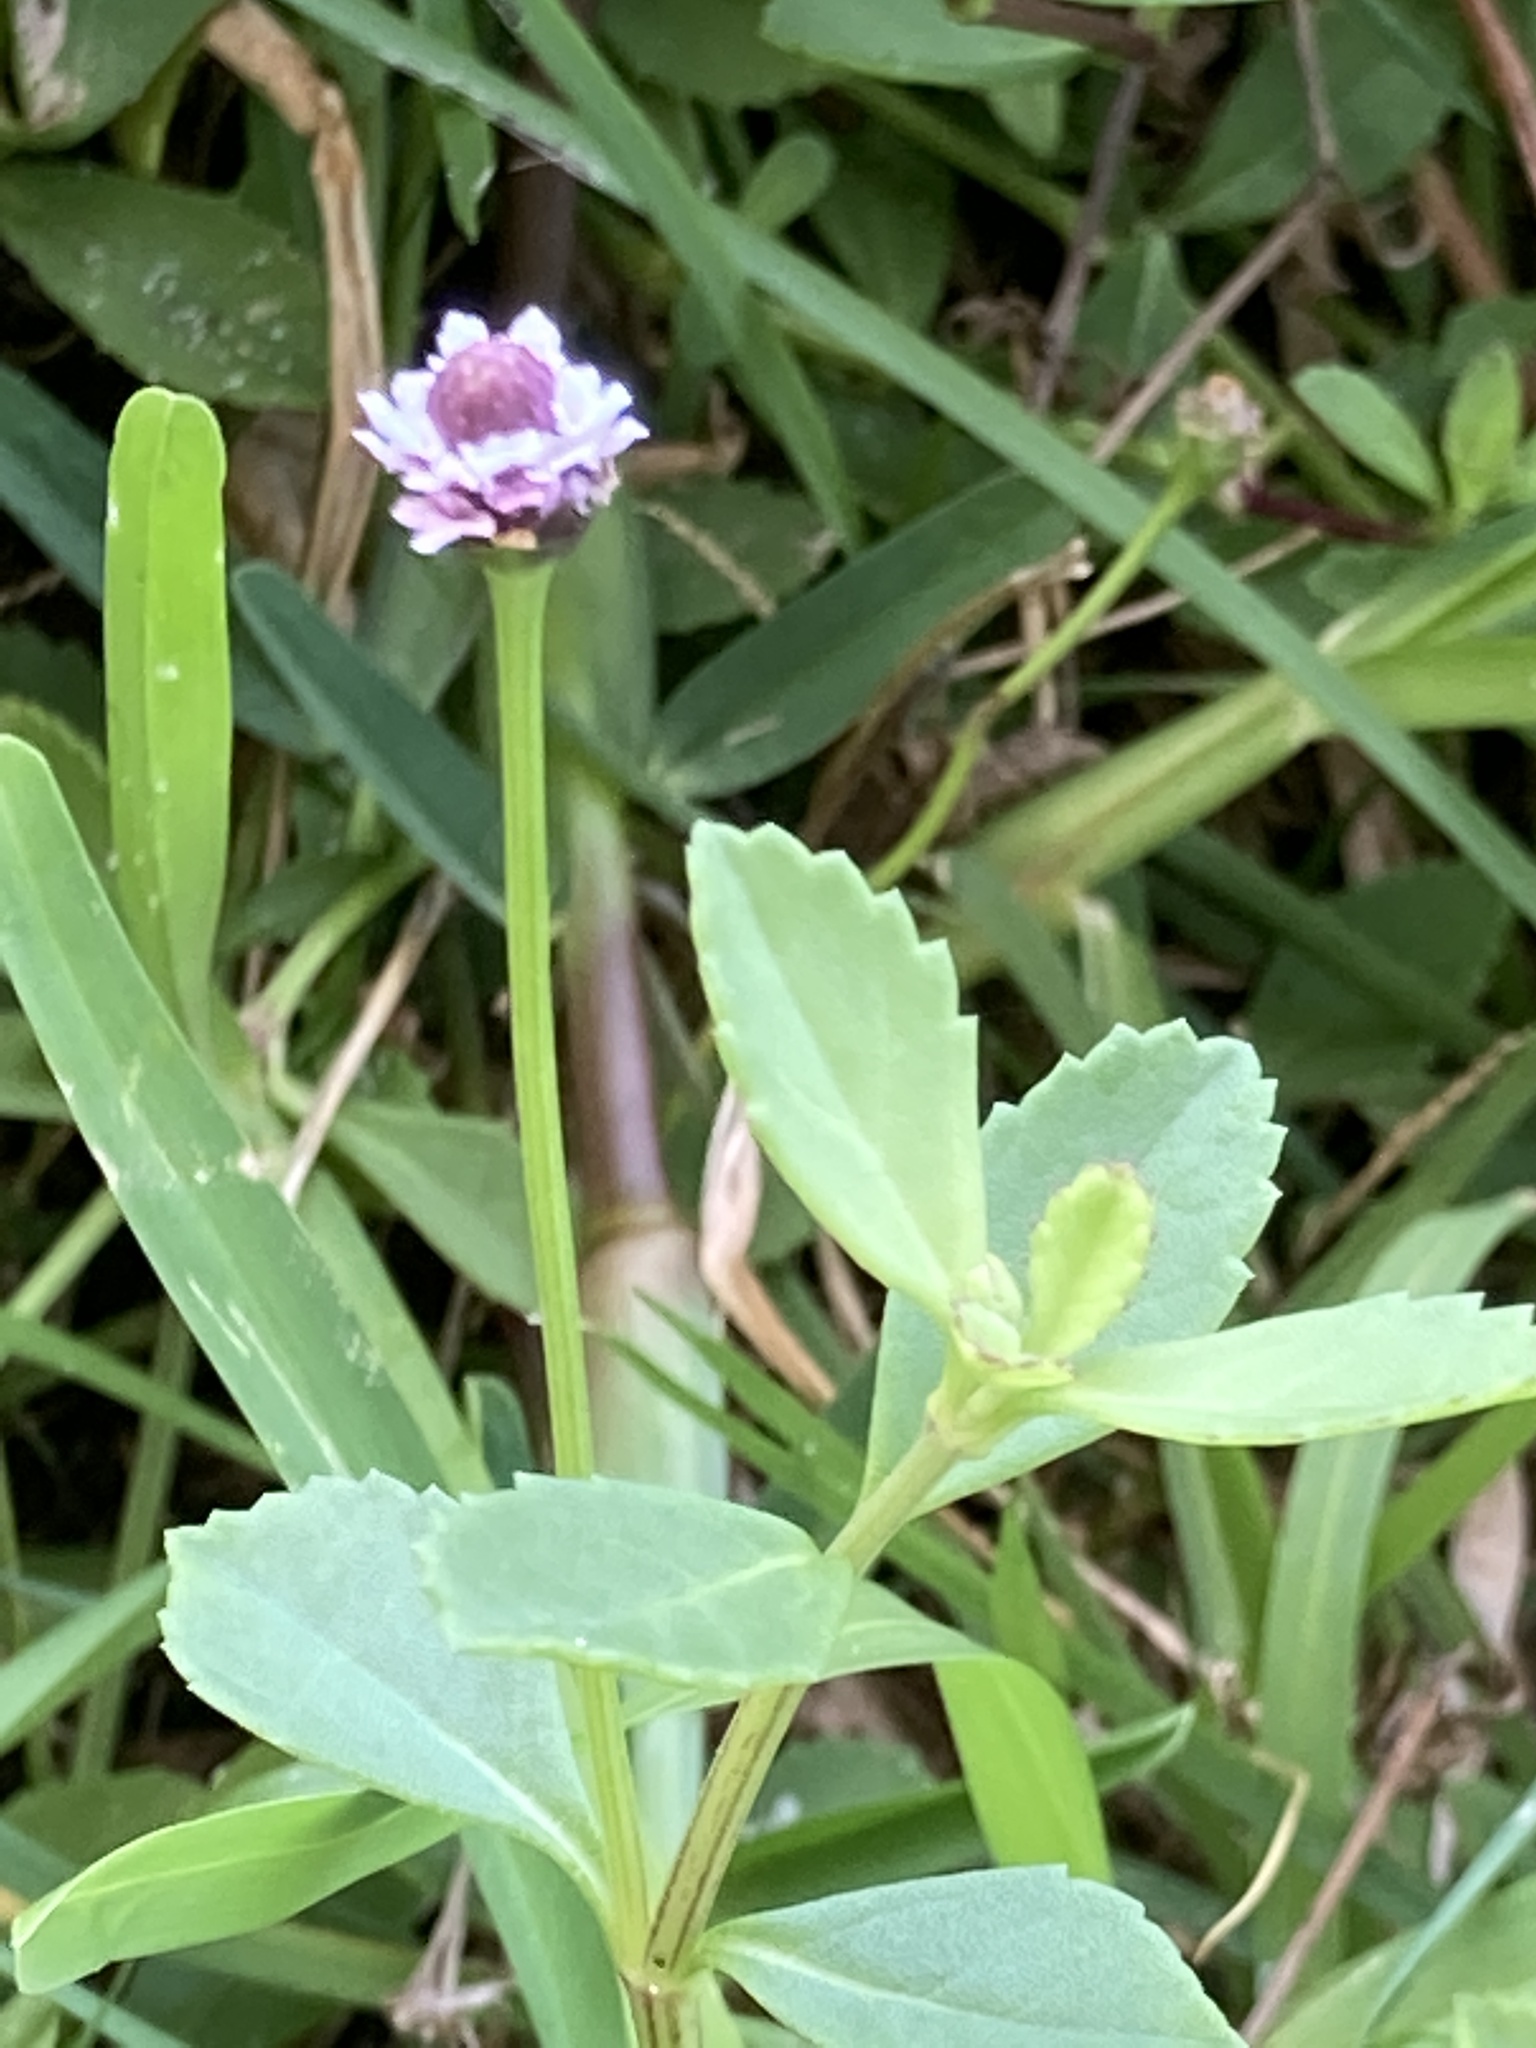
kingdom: Plantae
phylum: Tracheophyta
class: Magnoliopsida
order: Lamiales
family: Verbenaceae
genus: Phyla
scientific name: Phyla nodiflora
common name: Frogfruit
